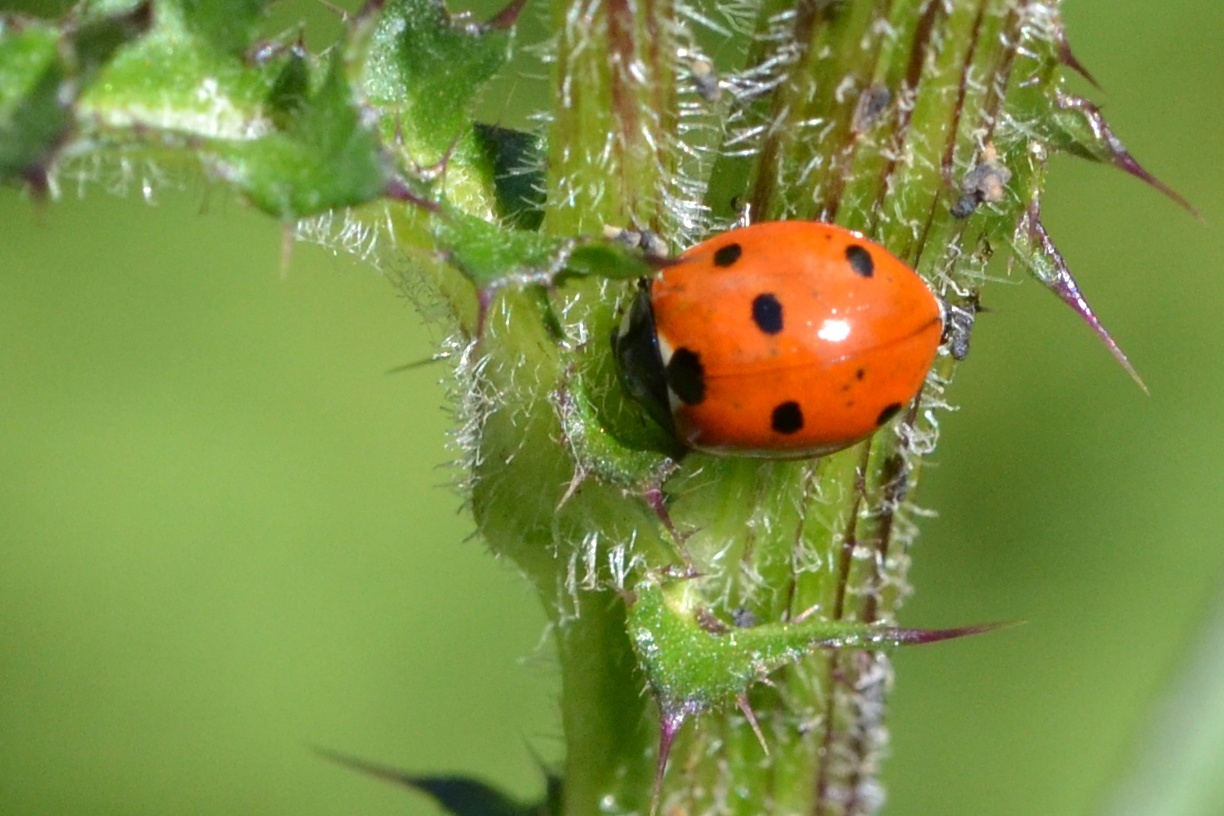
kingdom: Animalia
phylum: Arthropoda
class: Insecta
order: Coleoptera
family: Coccinellidae
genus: Coccinella
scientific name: Coccinella septempunctata
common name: Sevenspotted lady beetle
